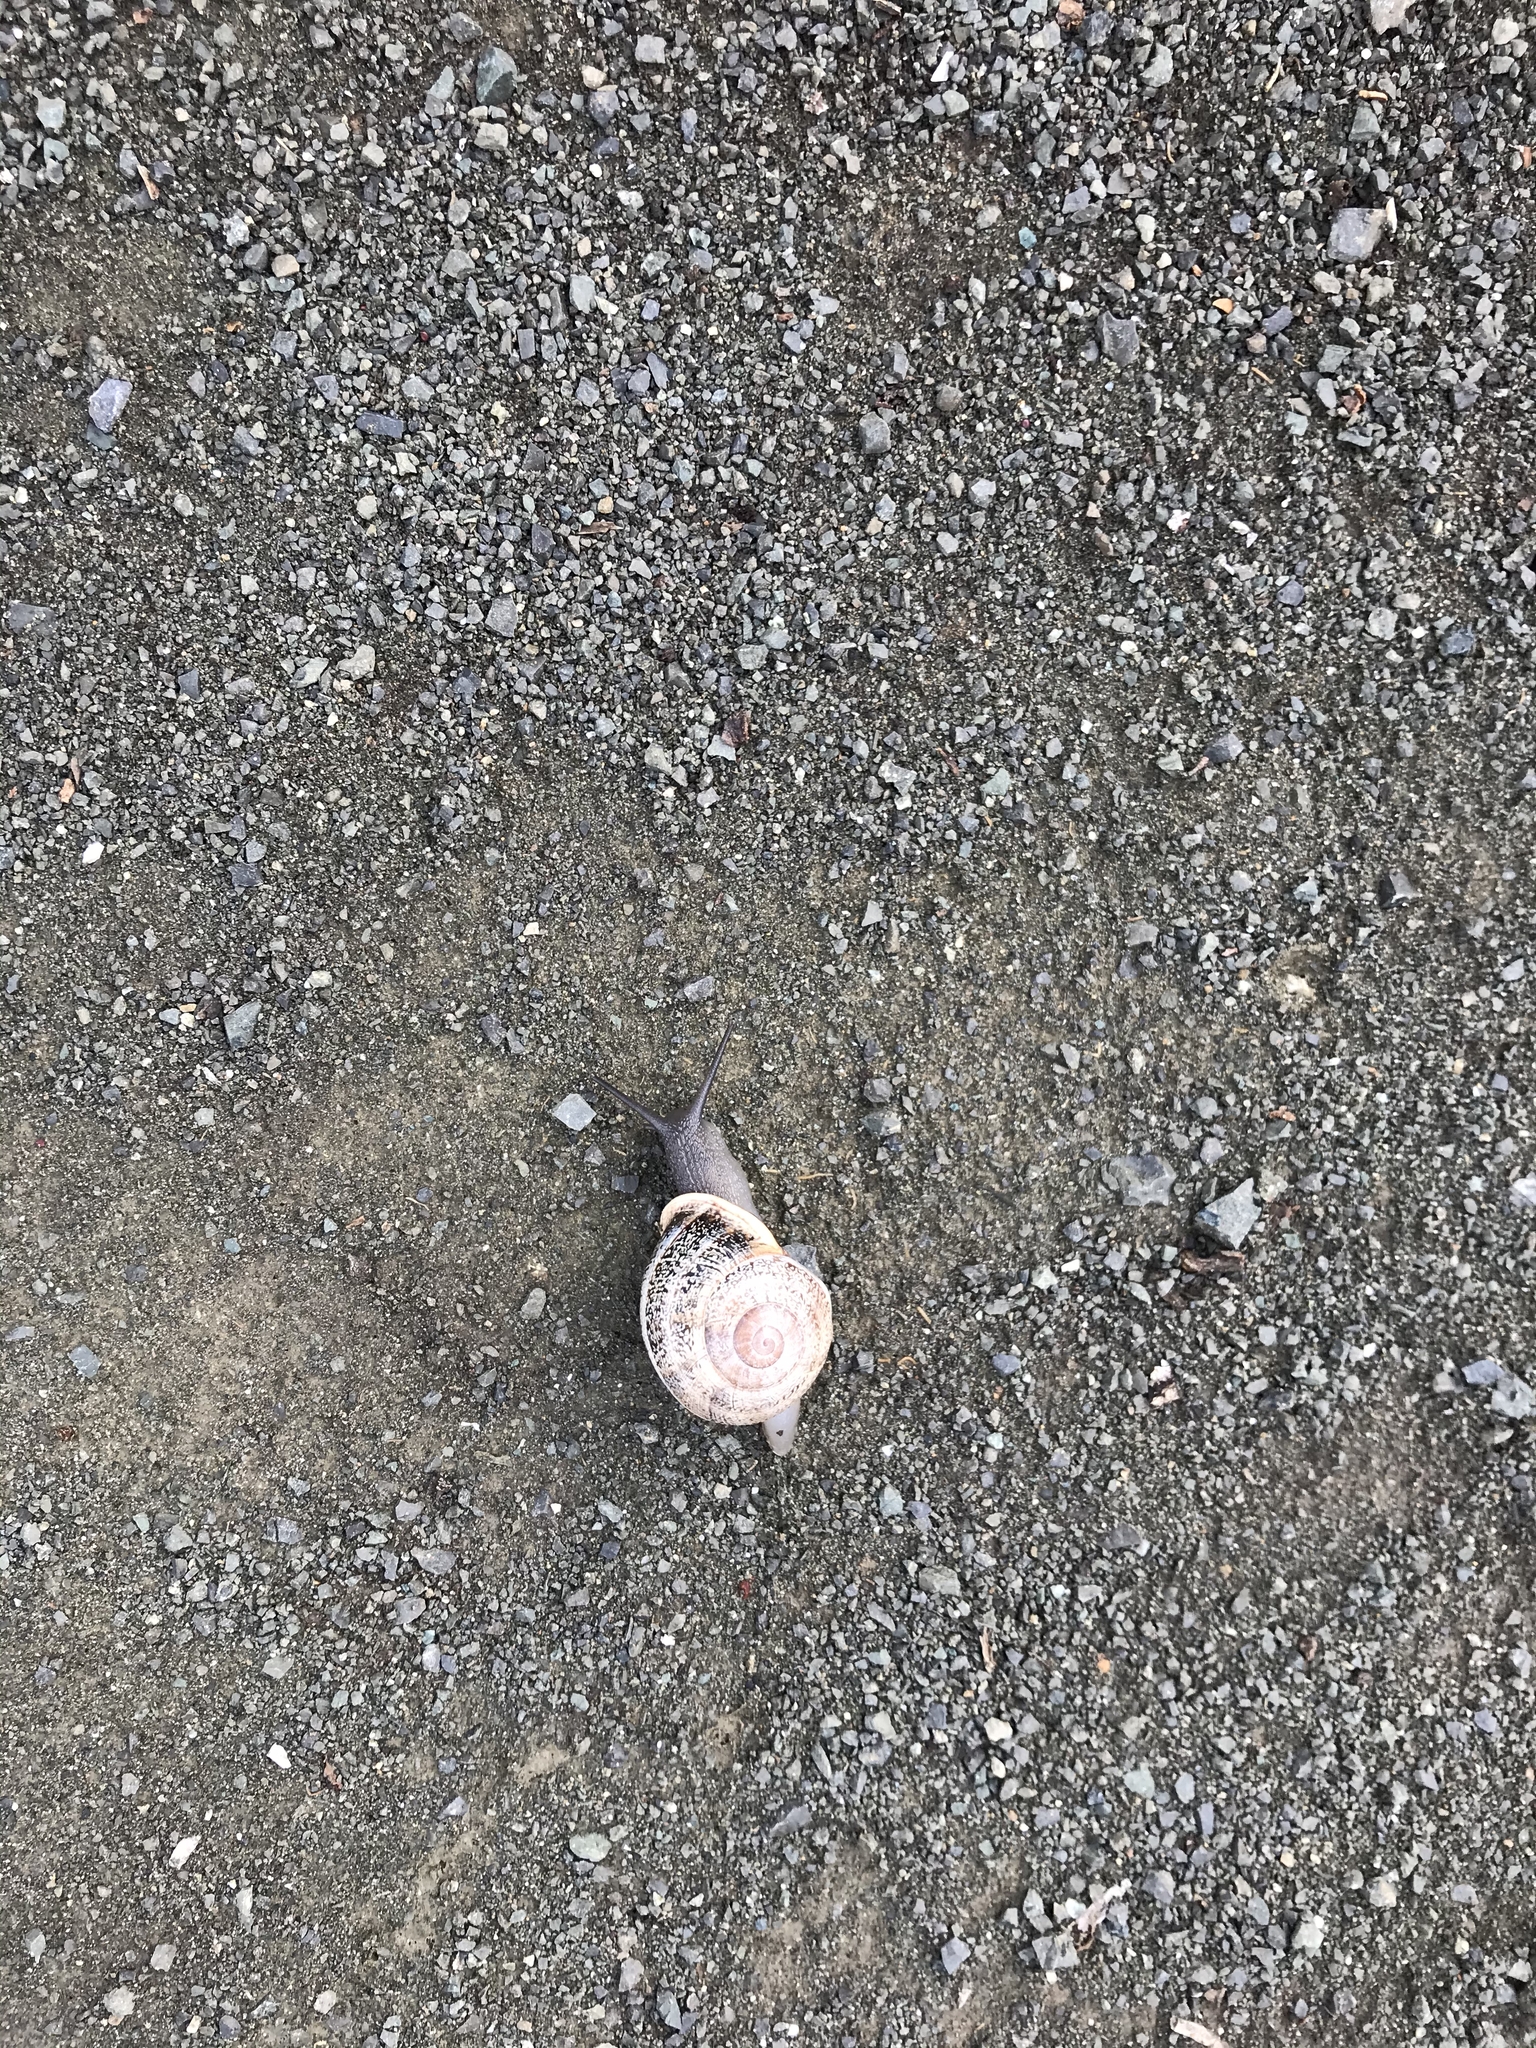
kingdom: Animalia
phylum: Mollusca
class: Gastropoda
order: Stylommatophora
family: Helicidae
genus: Otala
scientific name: Otala lactea
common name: Milk snail
